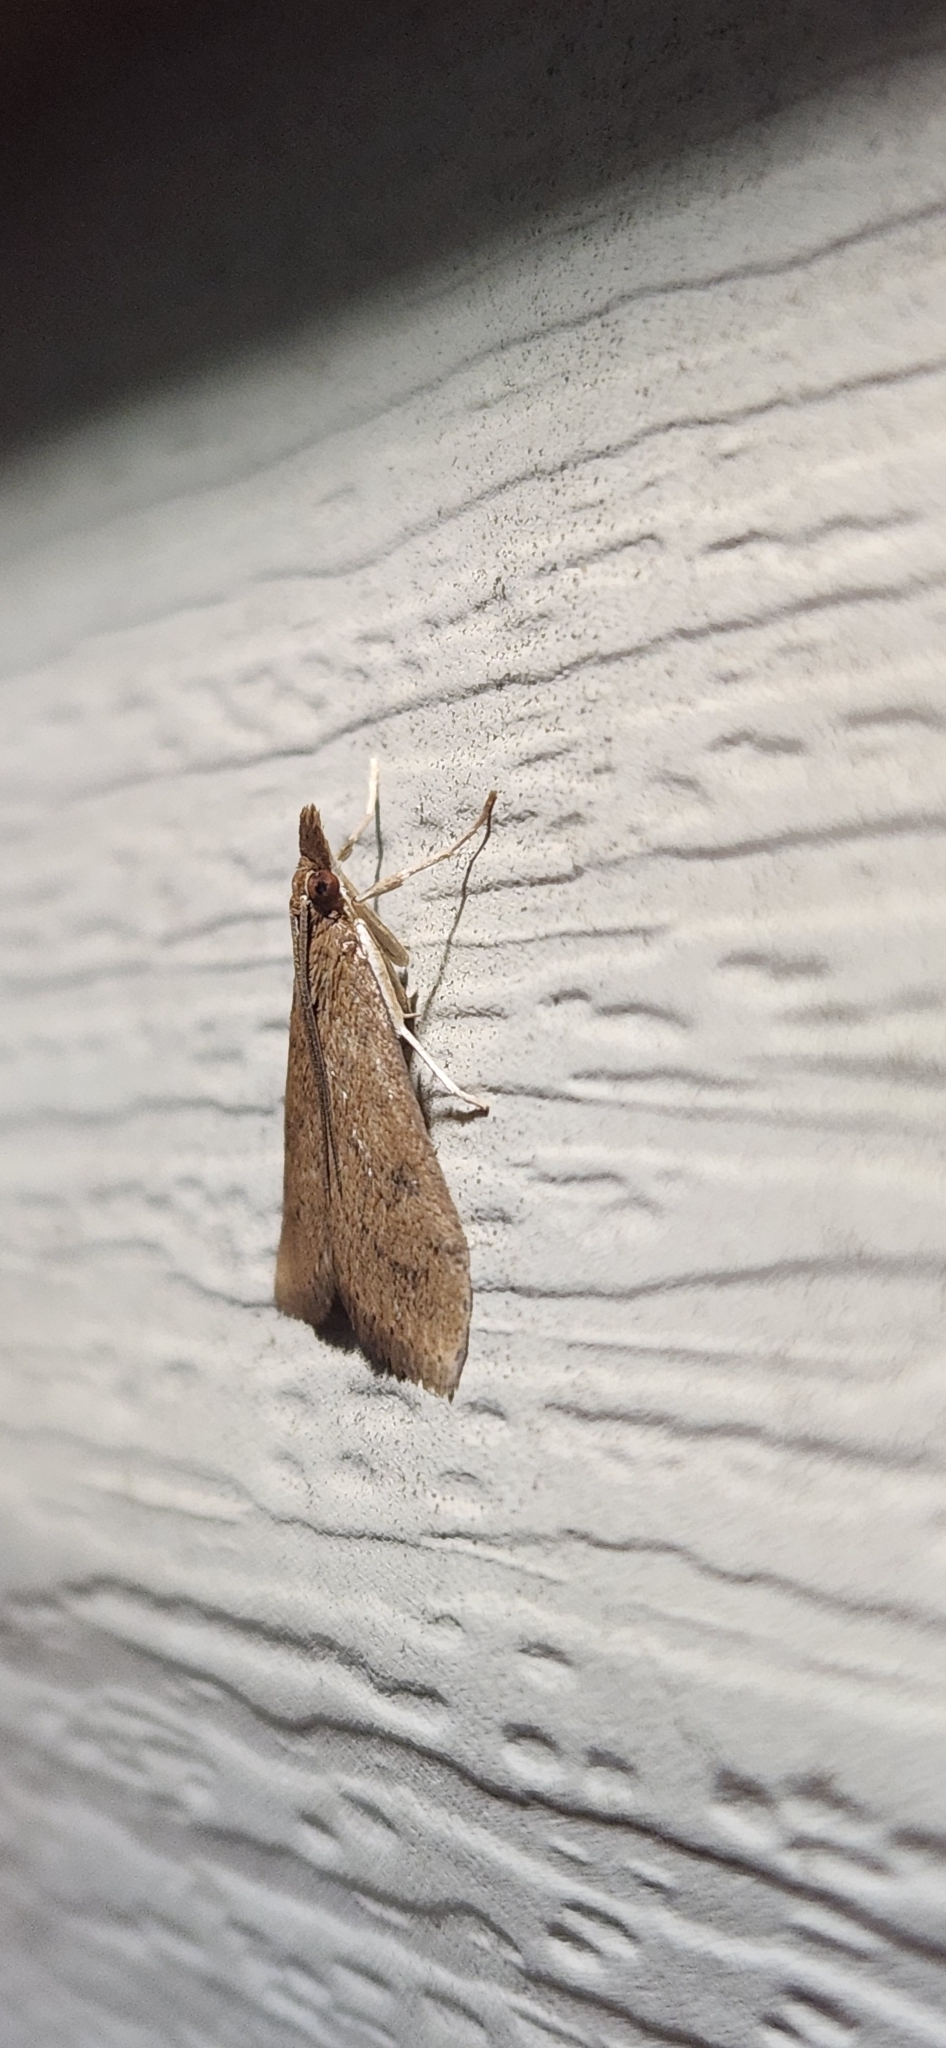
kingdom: Animalia
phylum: Arthropoda
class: Insecta
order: Lepidoptera
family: Crambidae
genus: Udea
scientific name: Udea rubigalis
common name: Celery leaftier moth
